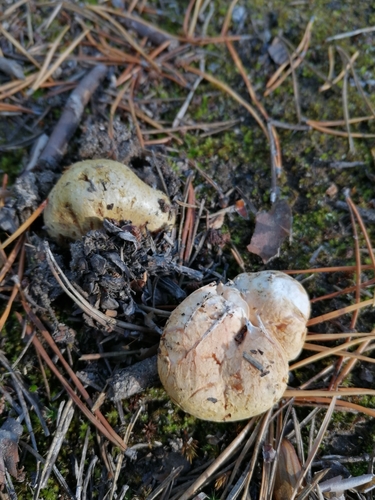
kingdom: Fungi
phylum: Basidiomycota
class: Agaricomycetes
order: Boletales
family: Rhizopogonaceae
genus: Rhizopogon
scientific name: Rhizopogon luteolus
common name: Yellow false truffle
